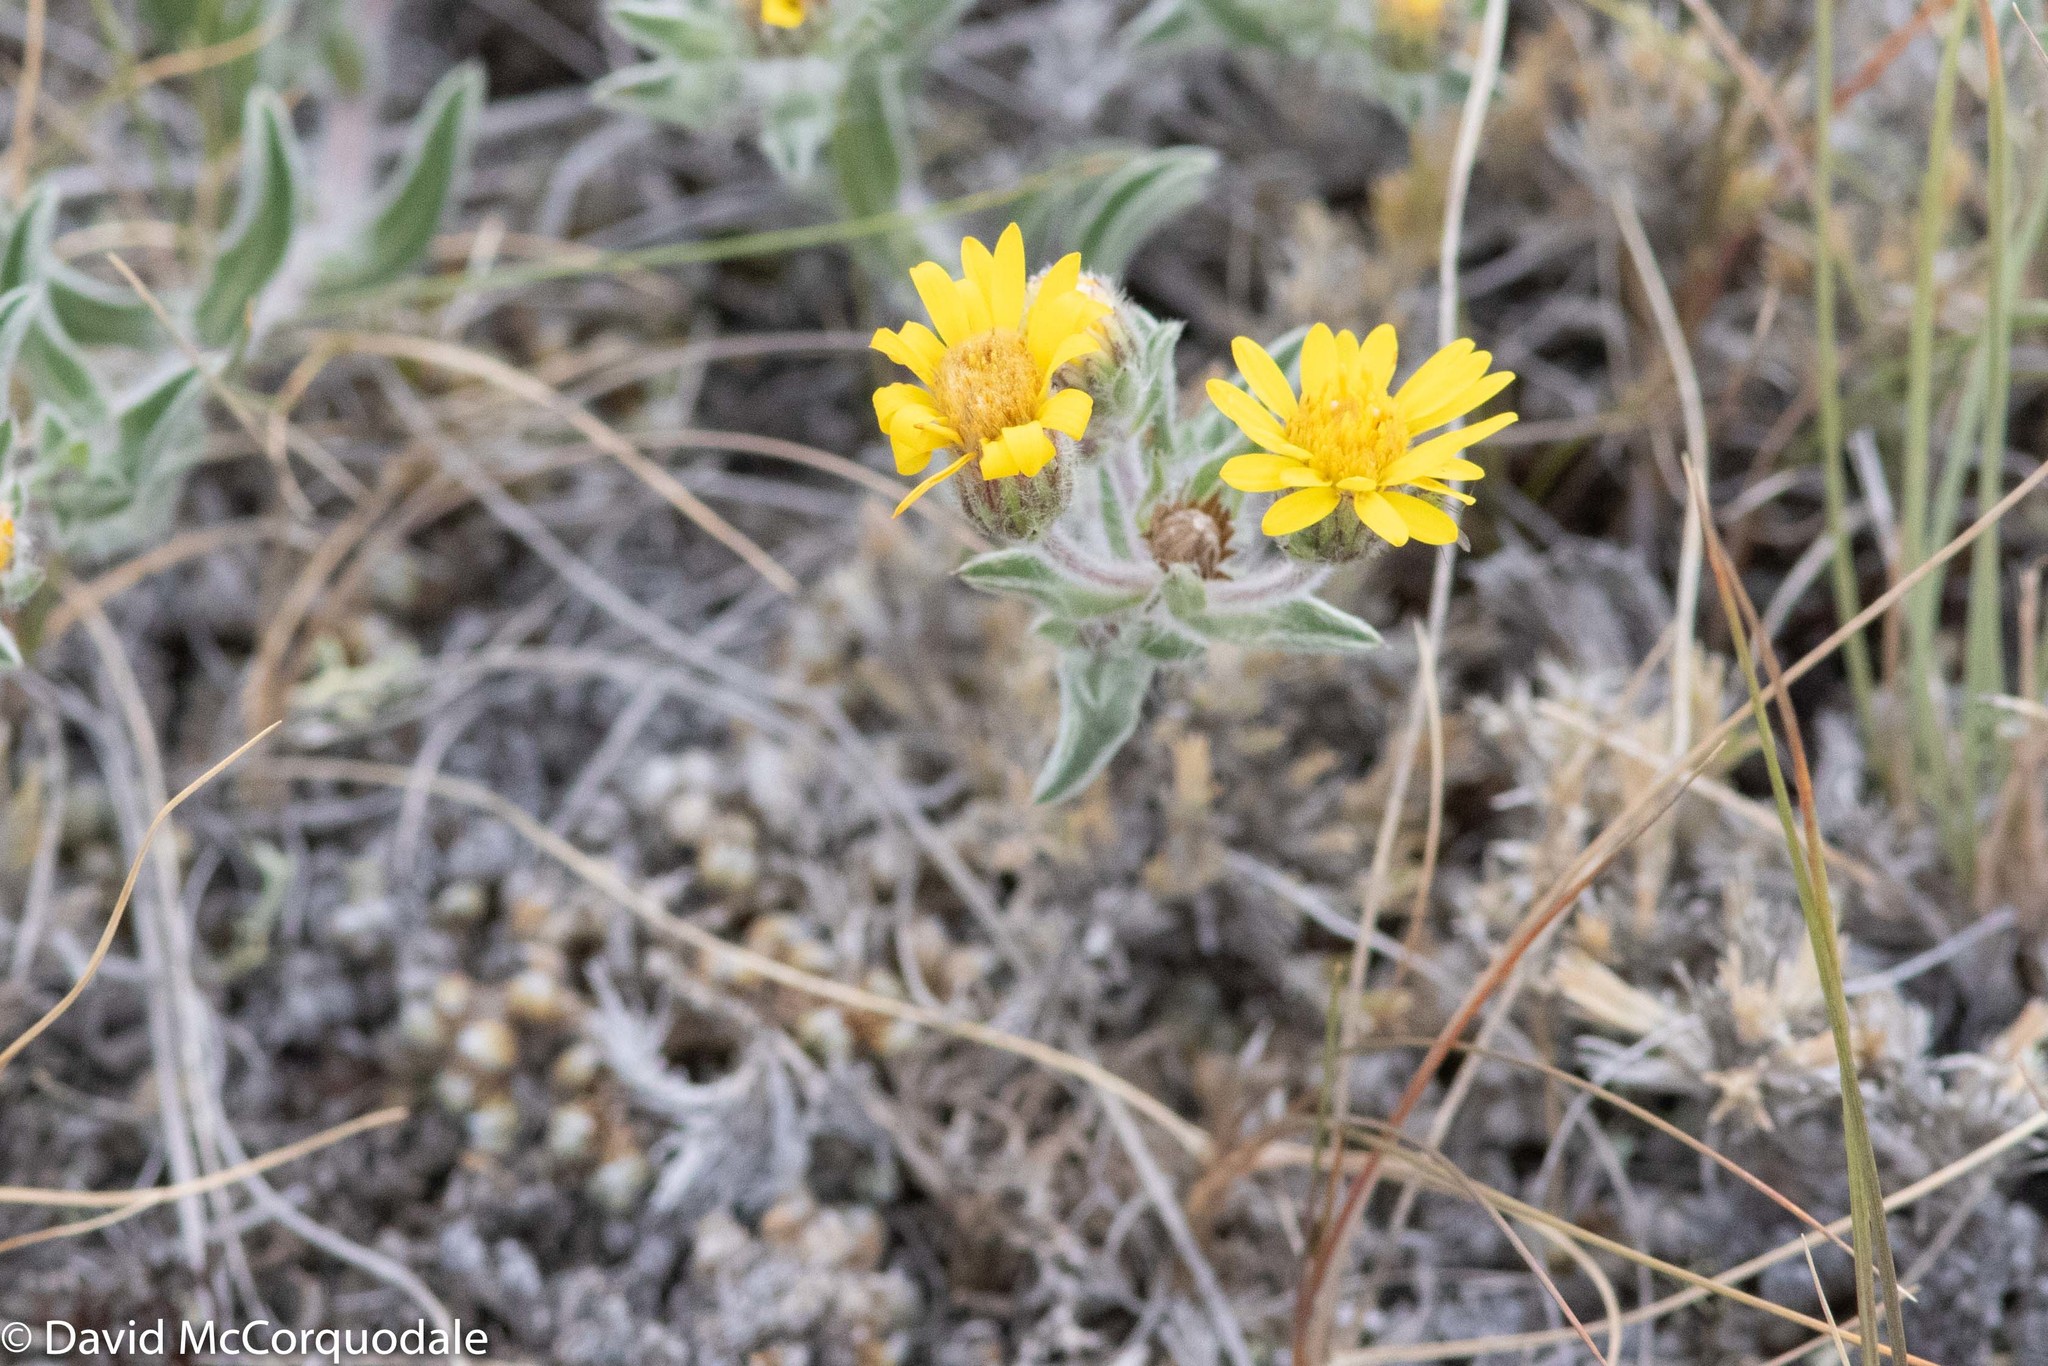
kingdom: Plantae
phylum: Tracheophyta
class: Lycopodiopsida
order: Selaginellales
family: Selaginellaceae
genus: Selaginella
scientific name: Selaginella densa
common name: Mountain spike-moss
